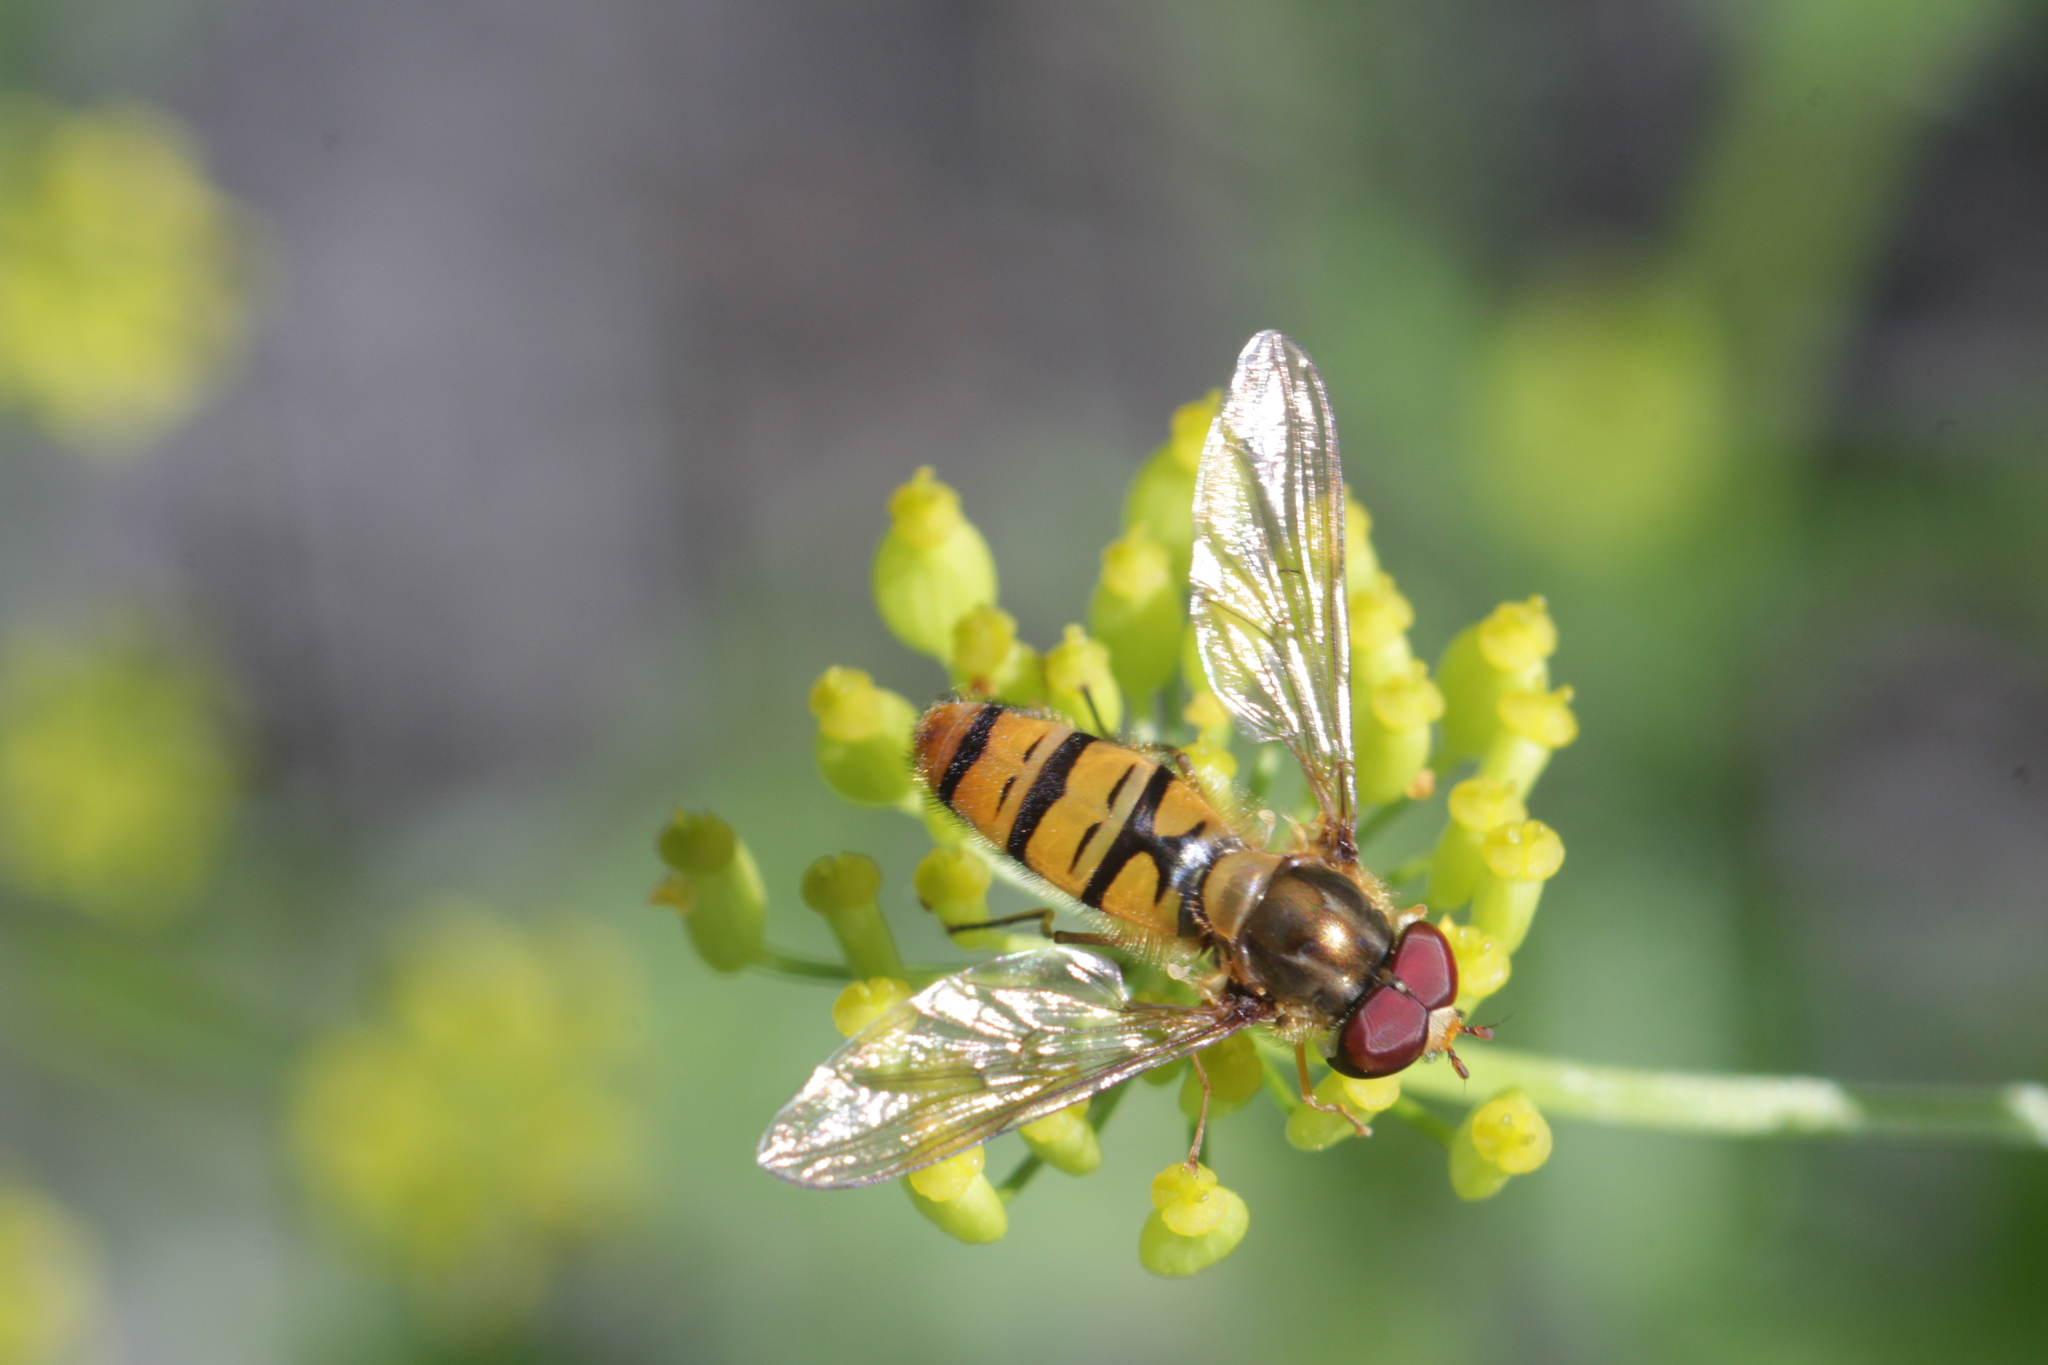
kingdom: Animalia
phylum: Arthropoda
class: Insecta
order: Diptera
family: Syrphidae
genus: Episyrphus
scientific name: Episyrphus balteatus
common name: Marmalade hoverfly
